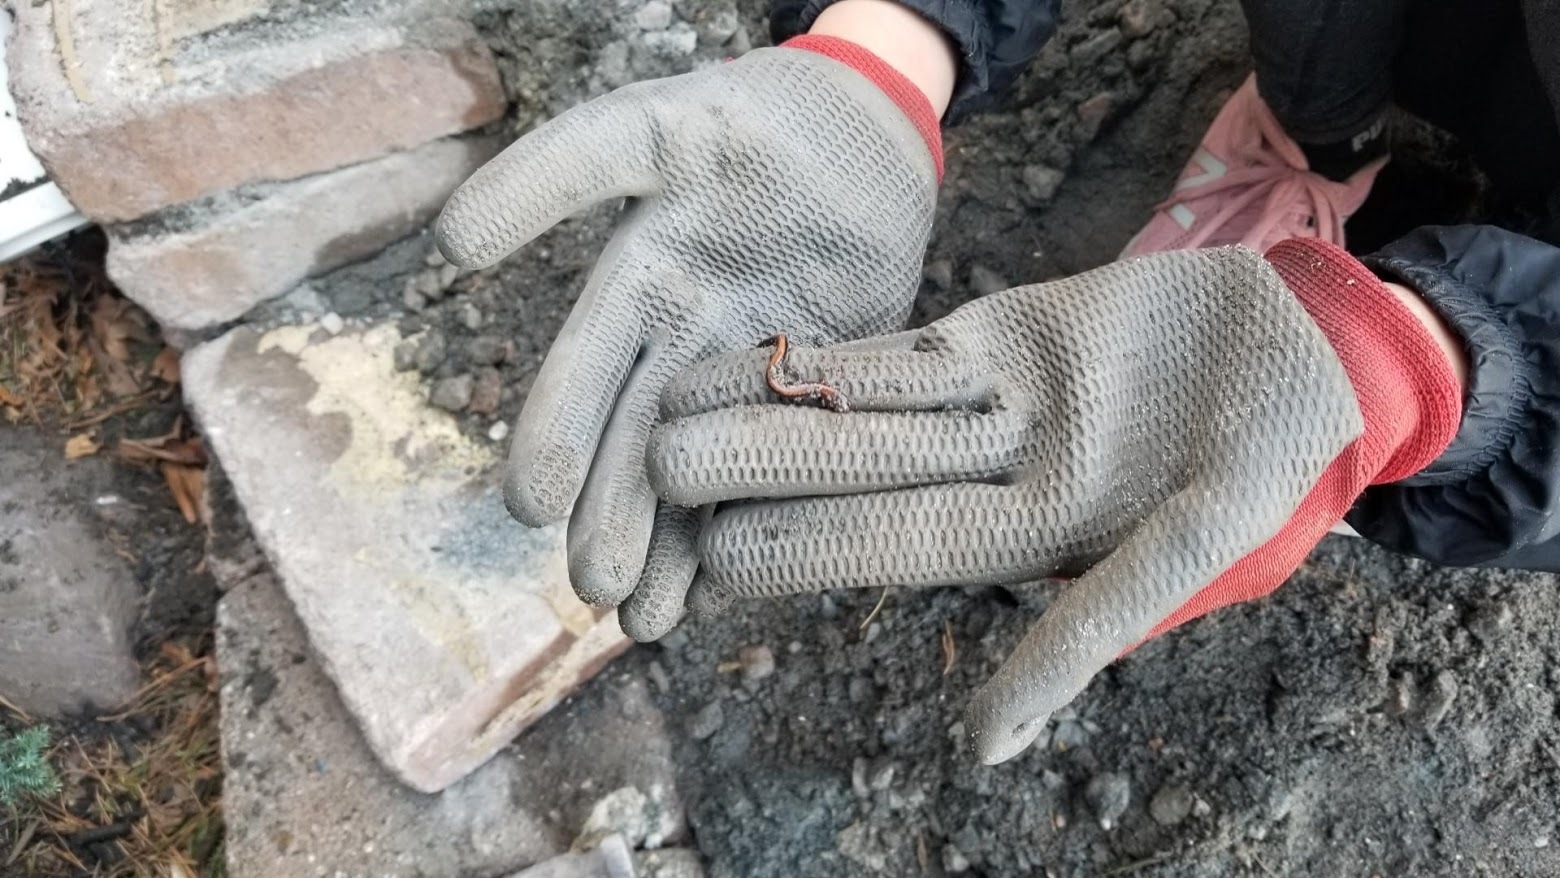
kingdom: Animalia
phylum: Chordata
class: Amphibia
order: Caudata
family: Plethodontidae
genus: Plethodon
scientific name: Plethodon cinereus
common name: Redback salamander
